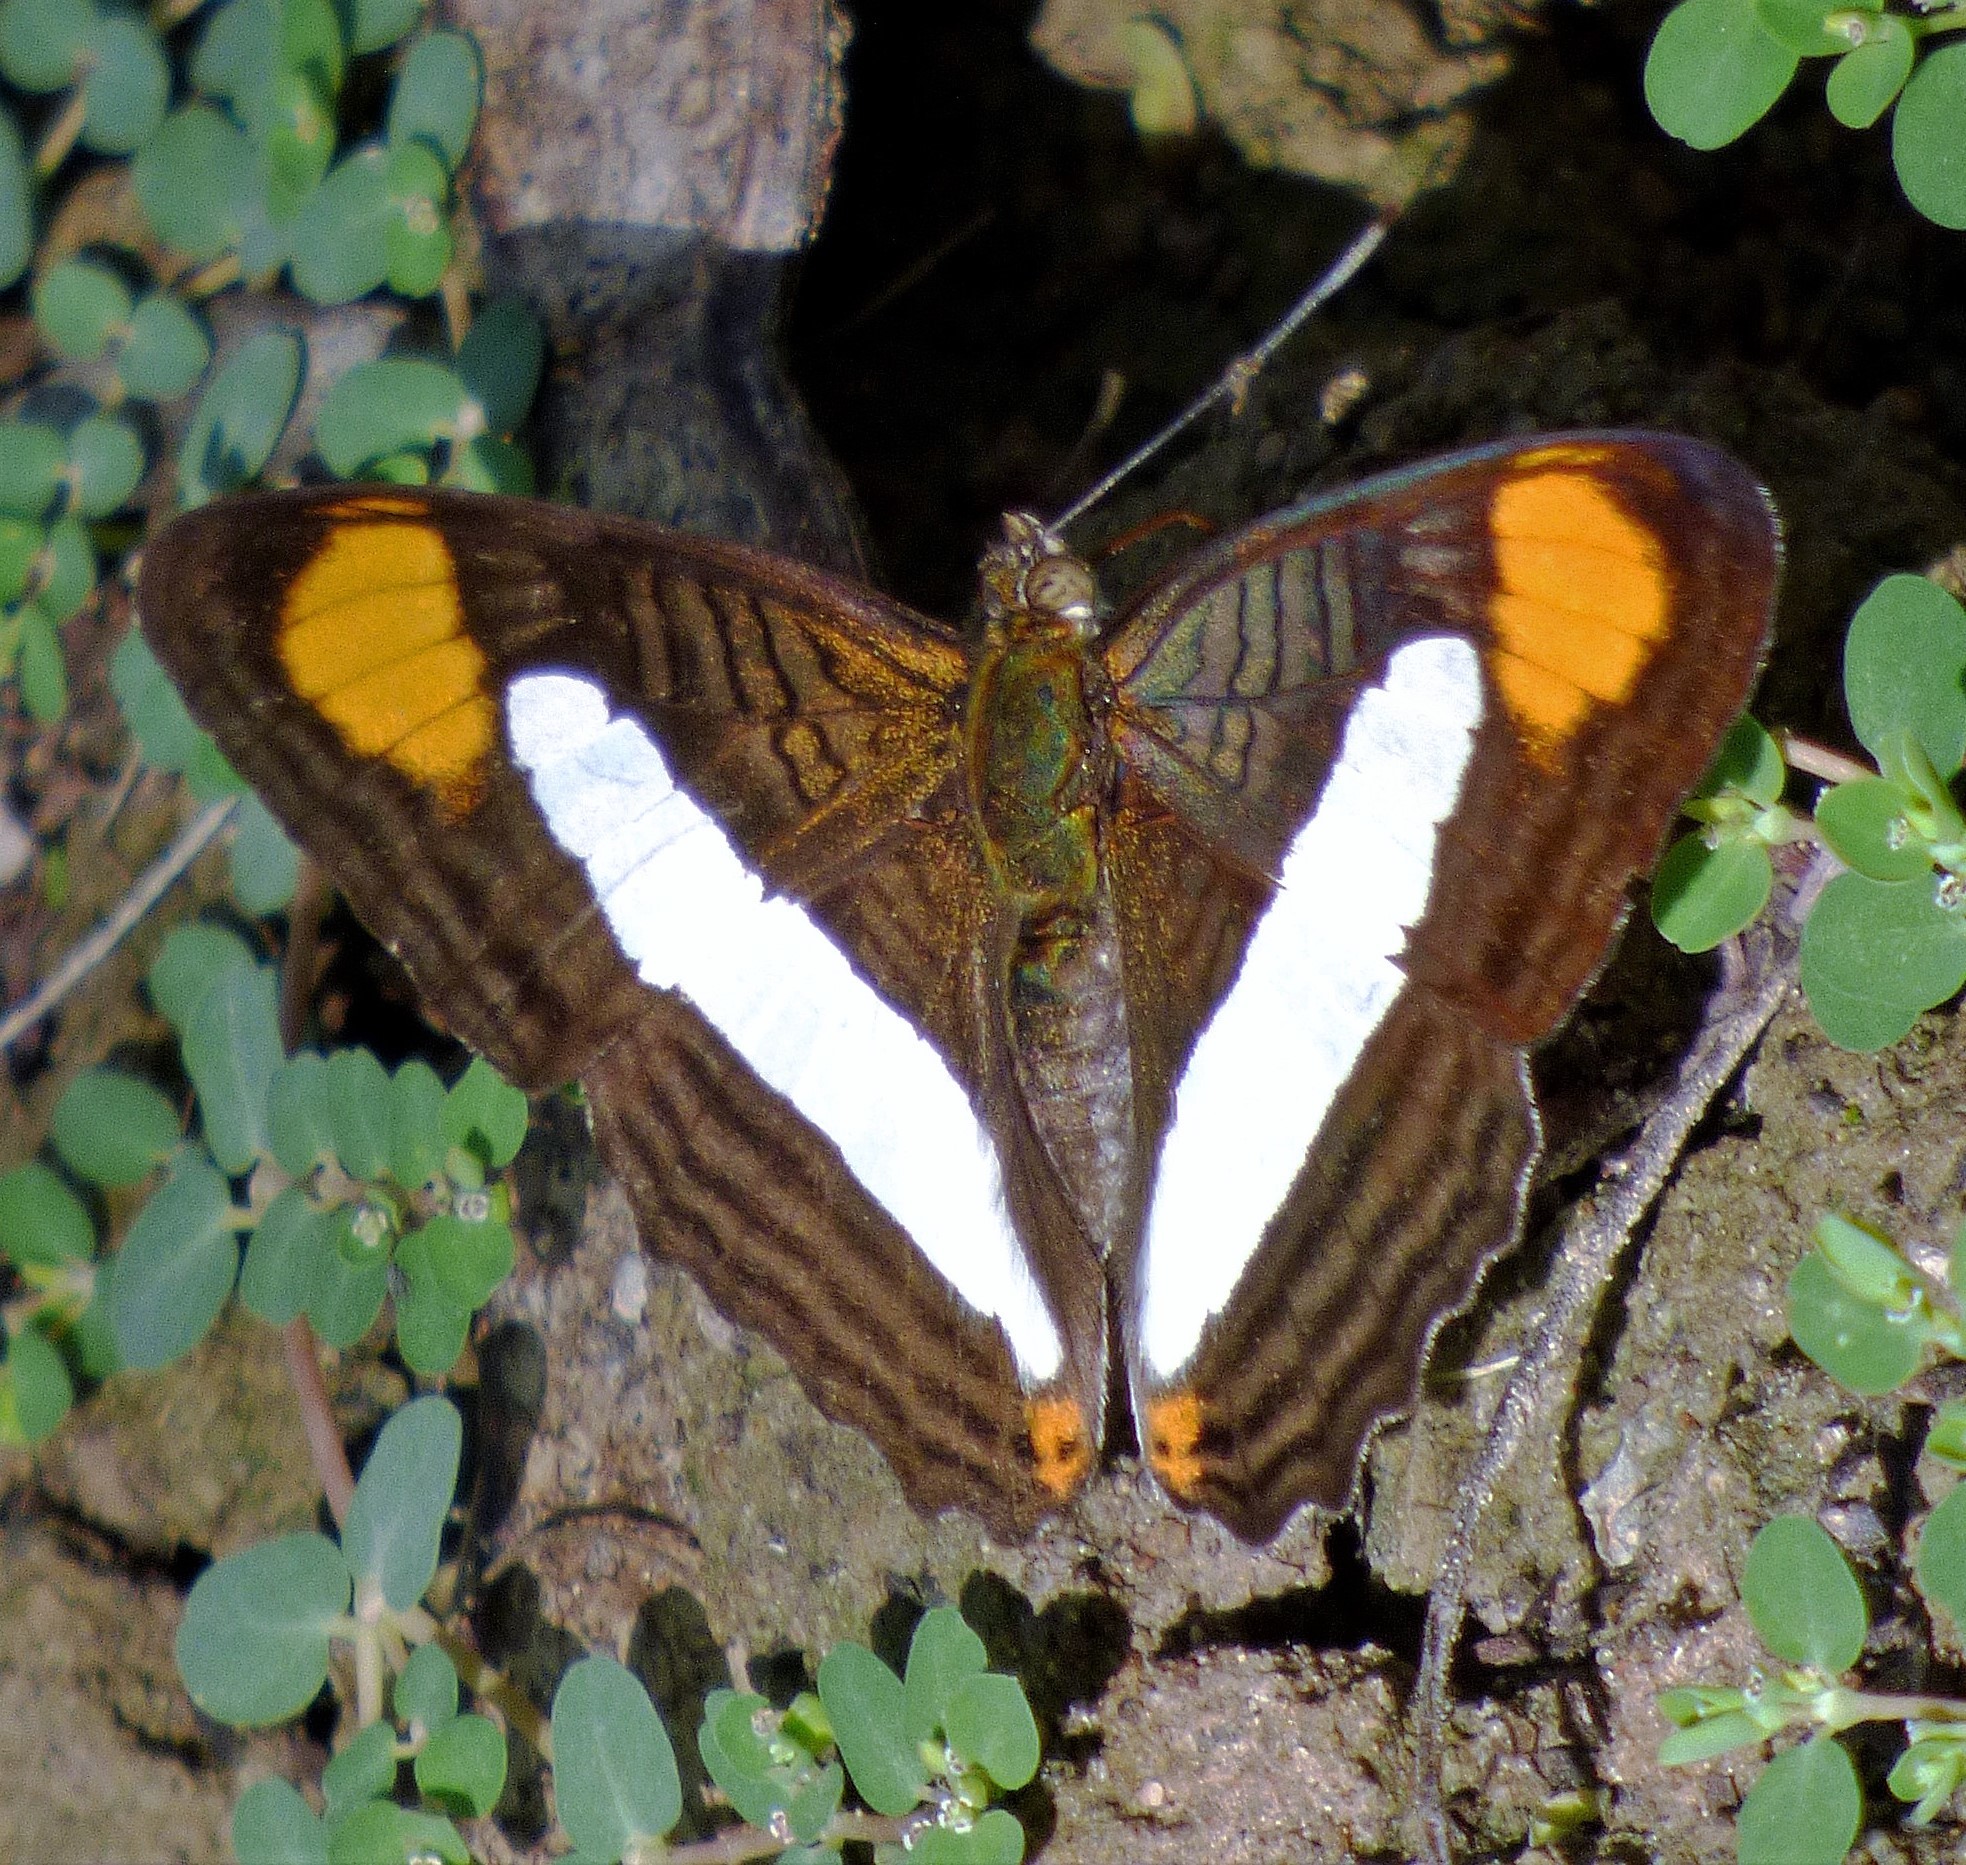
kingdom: Animalia
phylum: Arthropoda
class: Insecta
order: Lepidoptera
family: Nymphalidae
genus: Limenitis
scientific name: Limenitis thessalia
